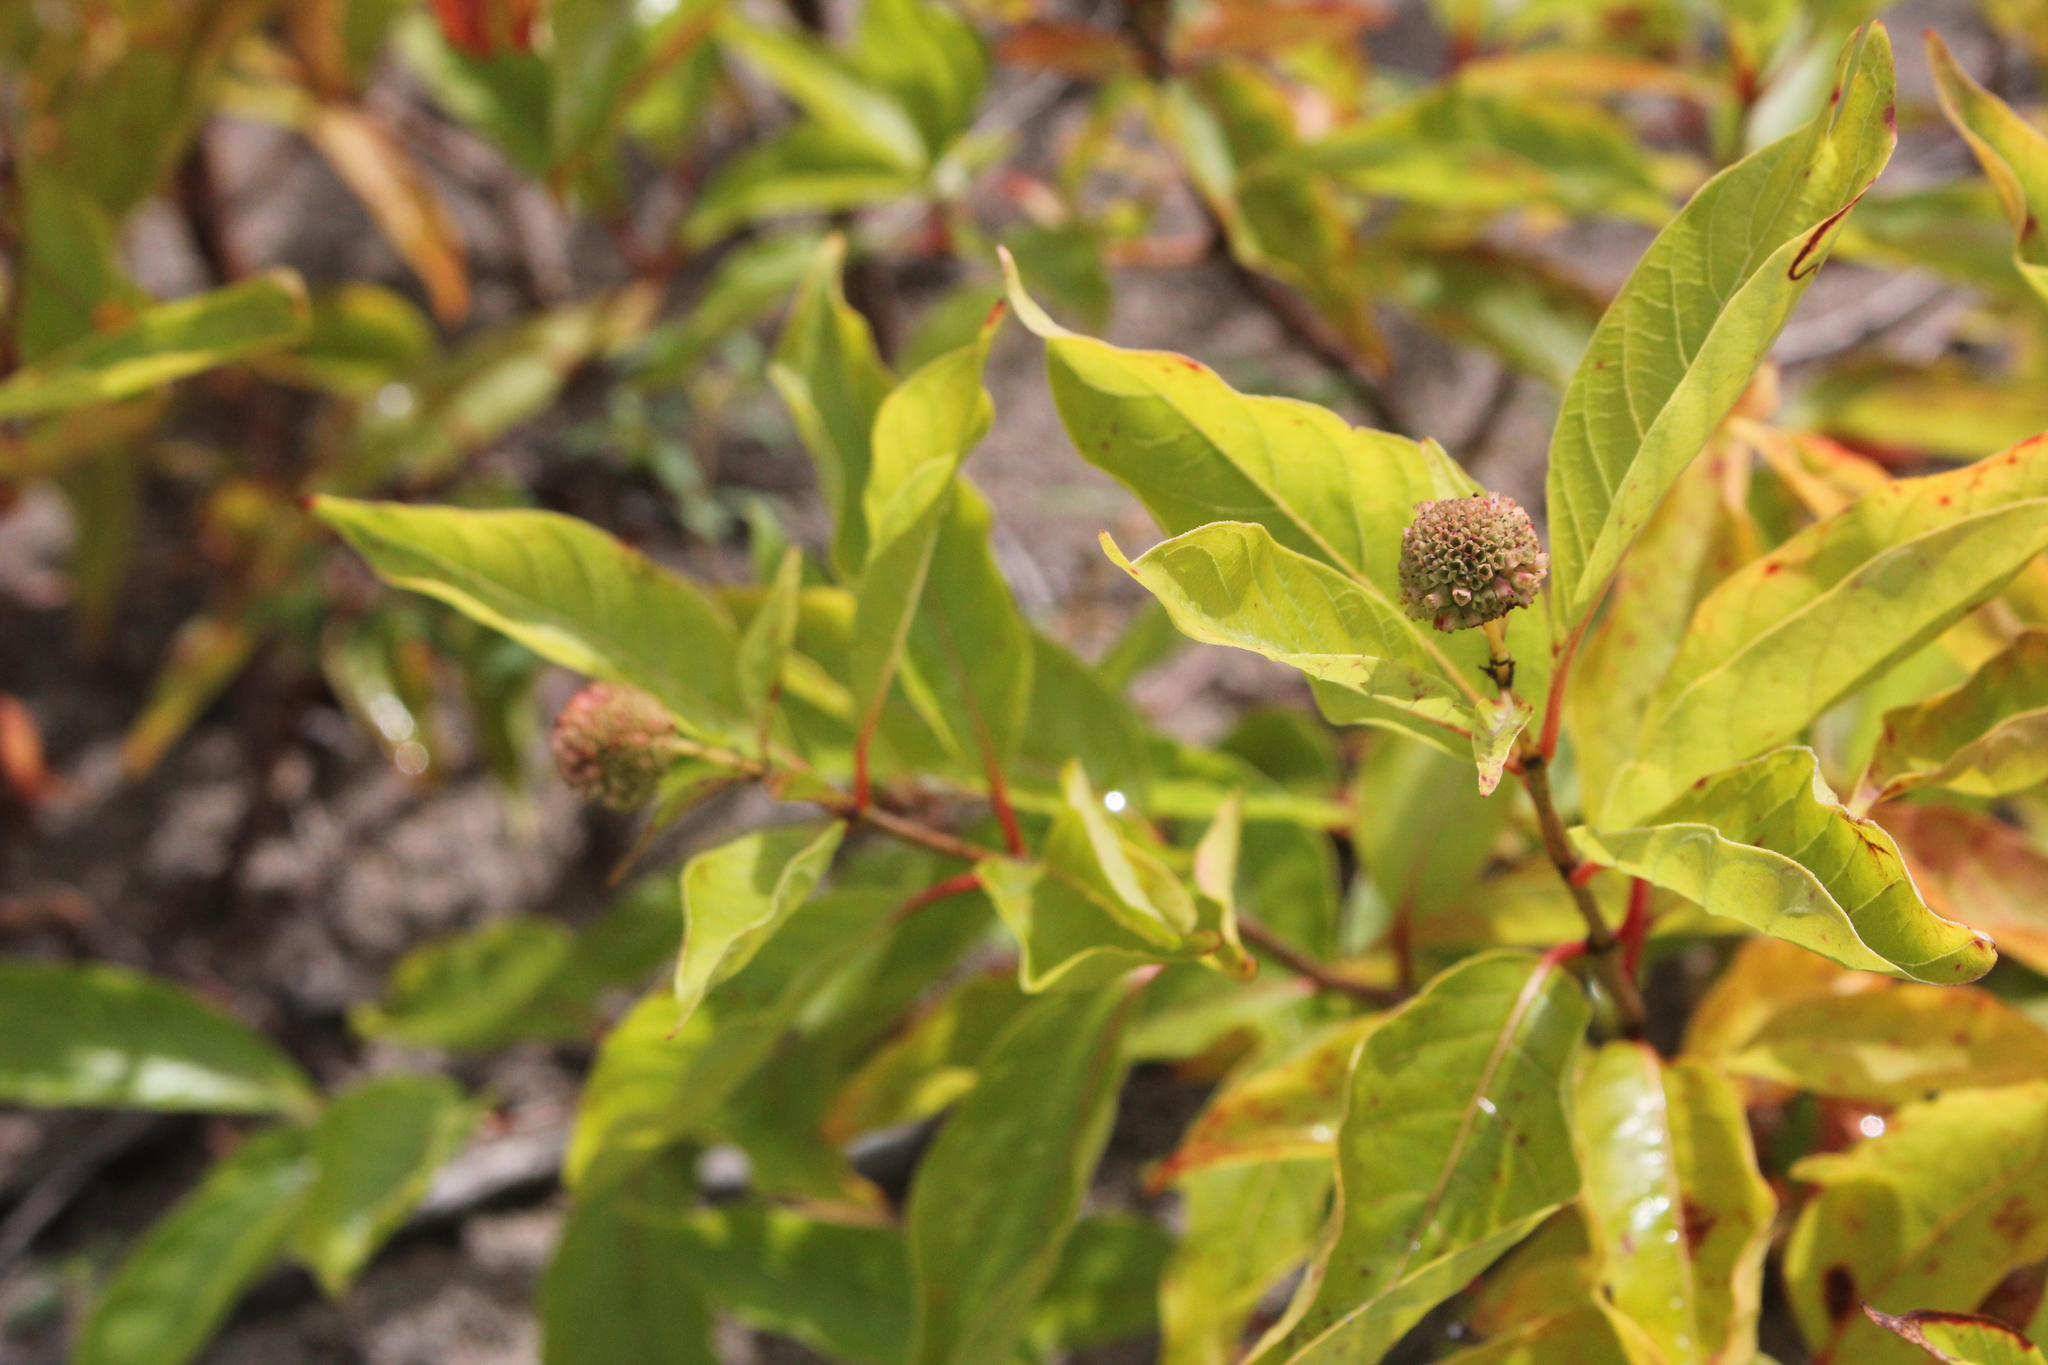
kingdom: Plantae
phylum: Tracheophyta
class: Magnoliopsida
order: Gentianales
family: Rubiaceae
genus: Cephalanthus
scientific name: Cephalanthus occidentalis
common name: Button-willow
